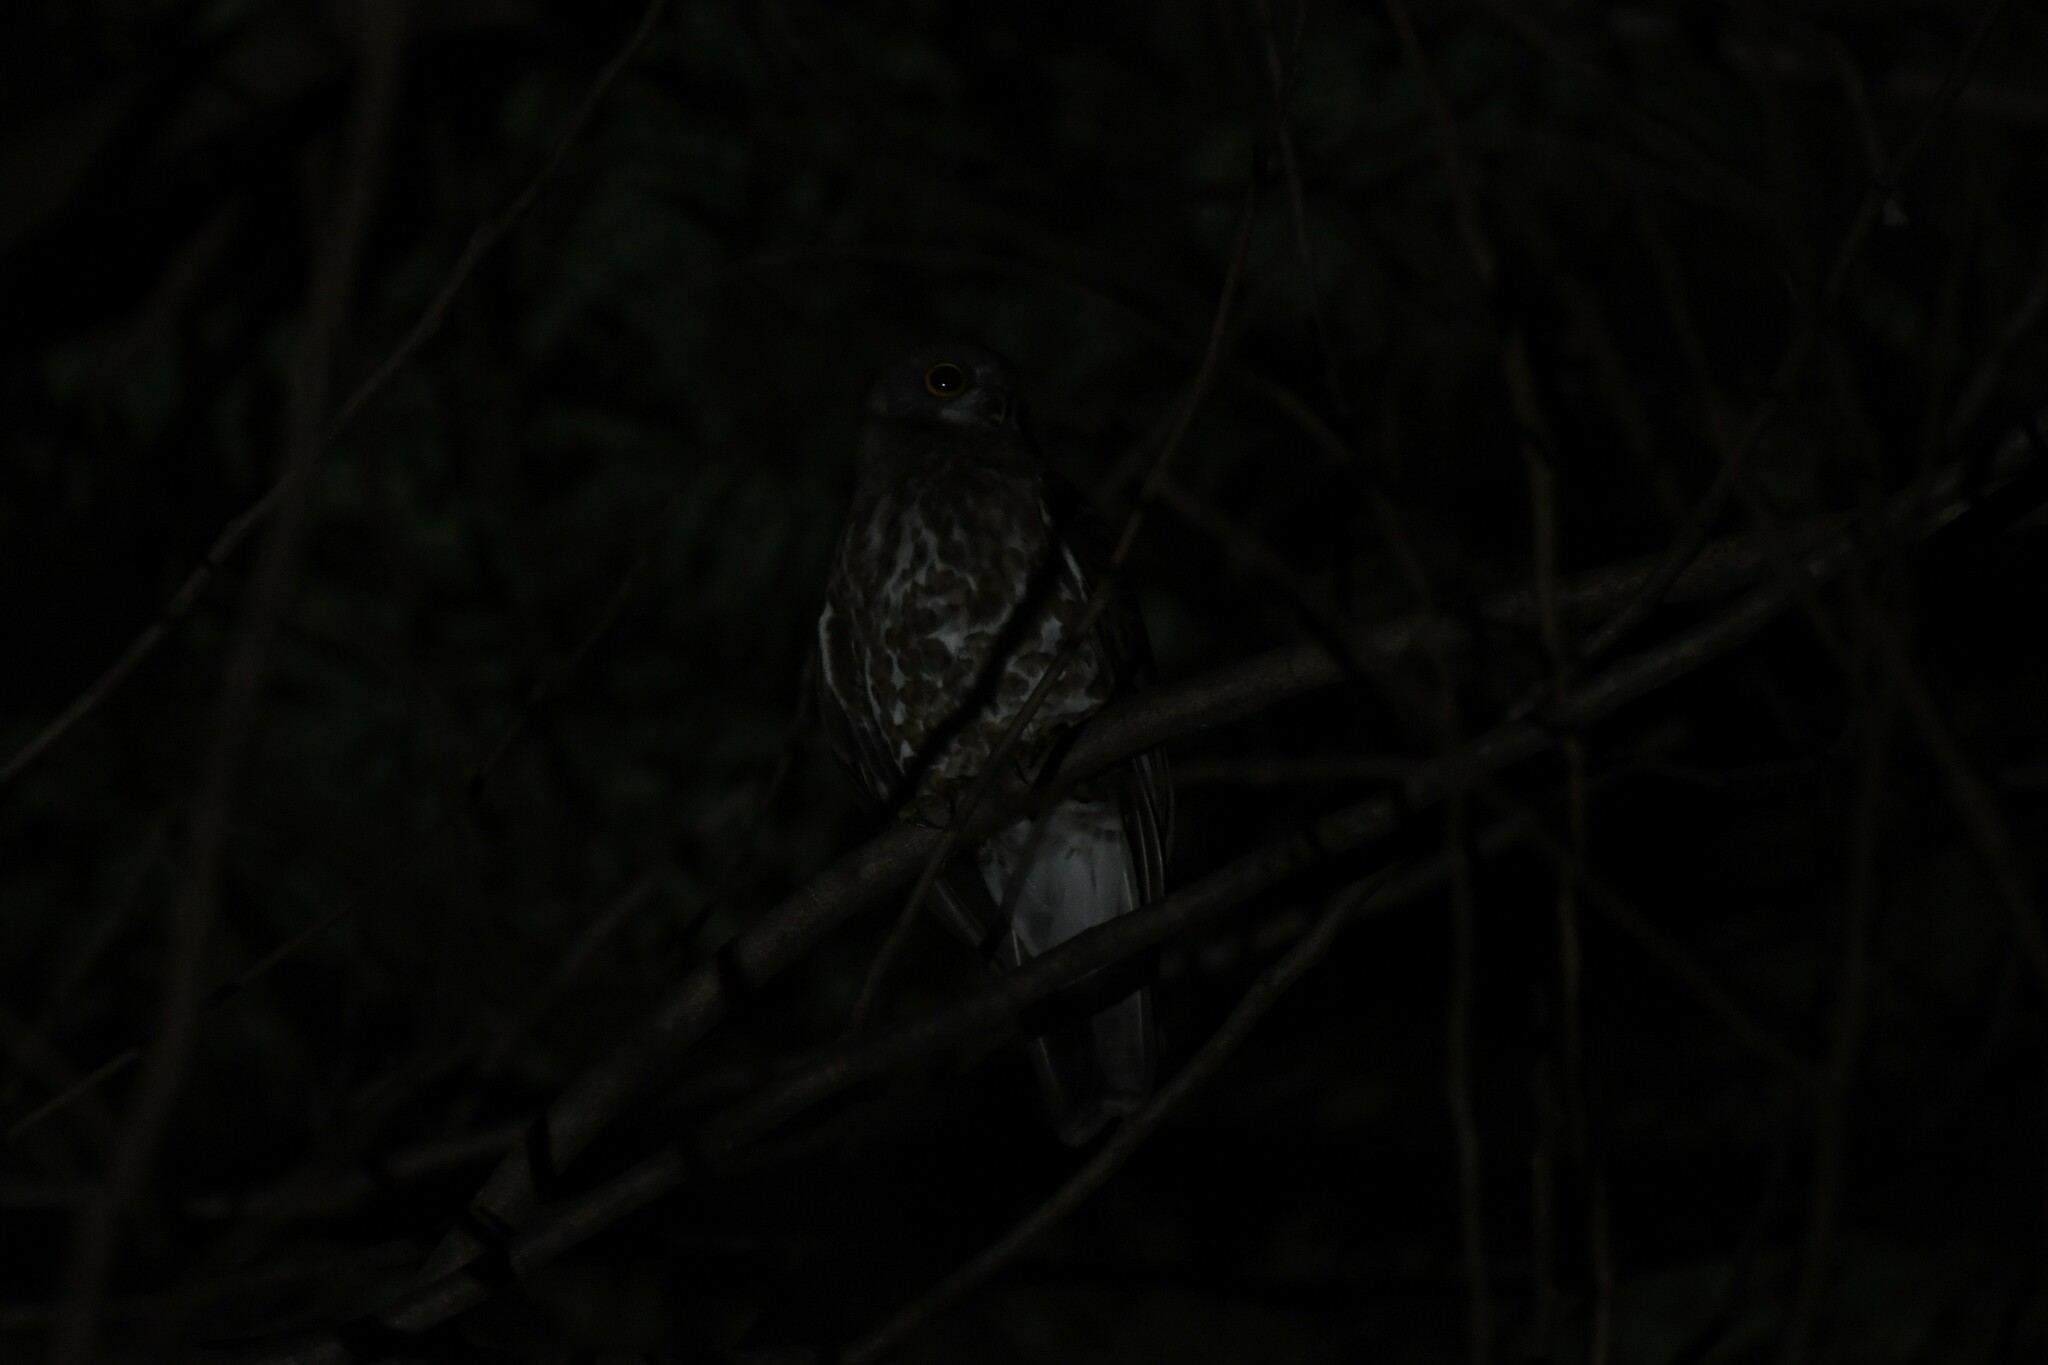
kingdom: Animalia
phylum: Chordata
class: Aves
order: Strigiformes
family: Strigidae
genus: Ninox
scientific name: Ninox scutulata
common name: Brown hawk-owl
